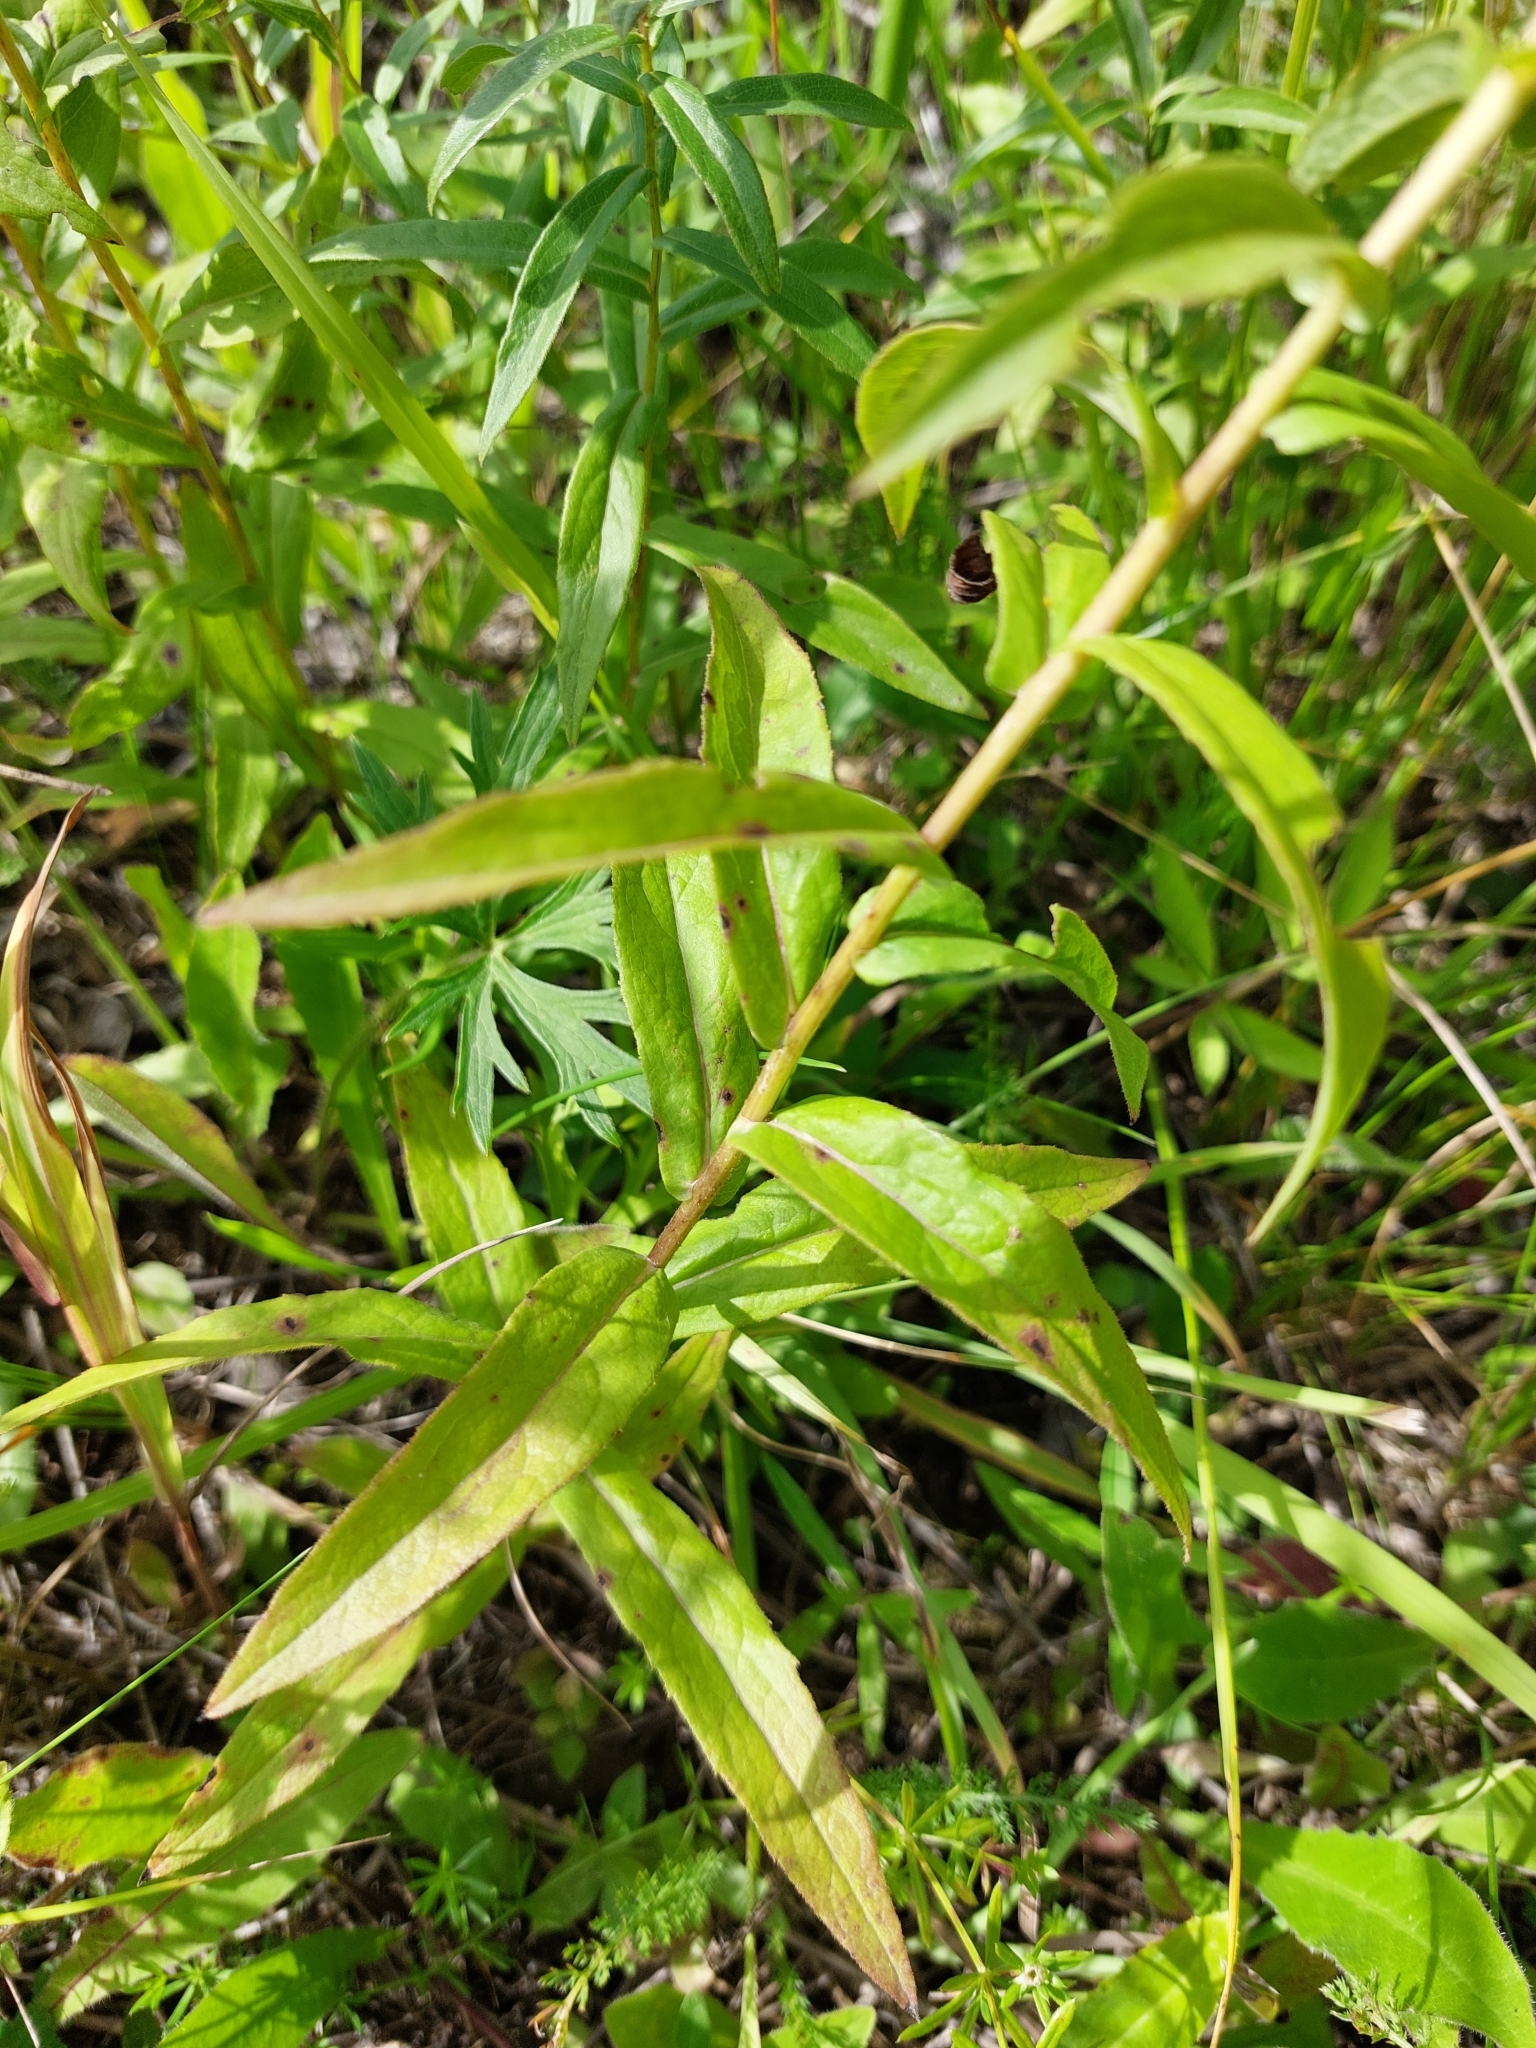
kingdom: Plantae
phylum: Tracheophyta
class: Magnoliopsida
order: Asterales
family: Asteraceae
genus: Pentanema
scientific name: Pentanema salicinum
